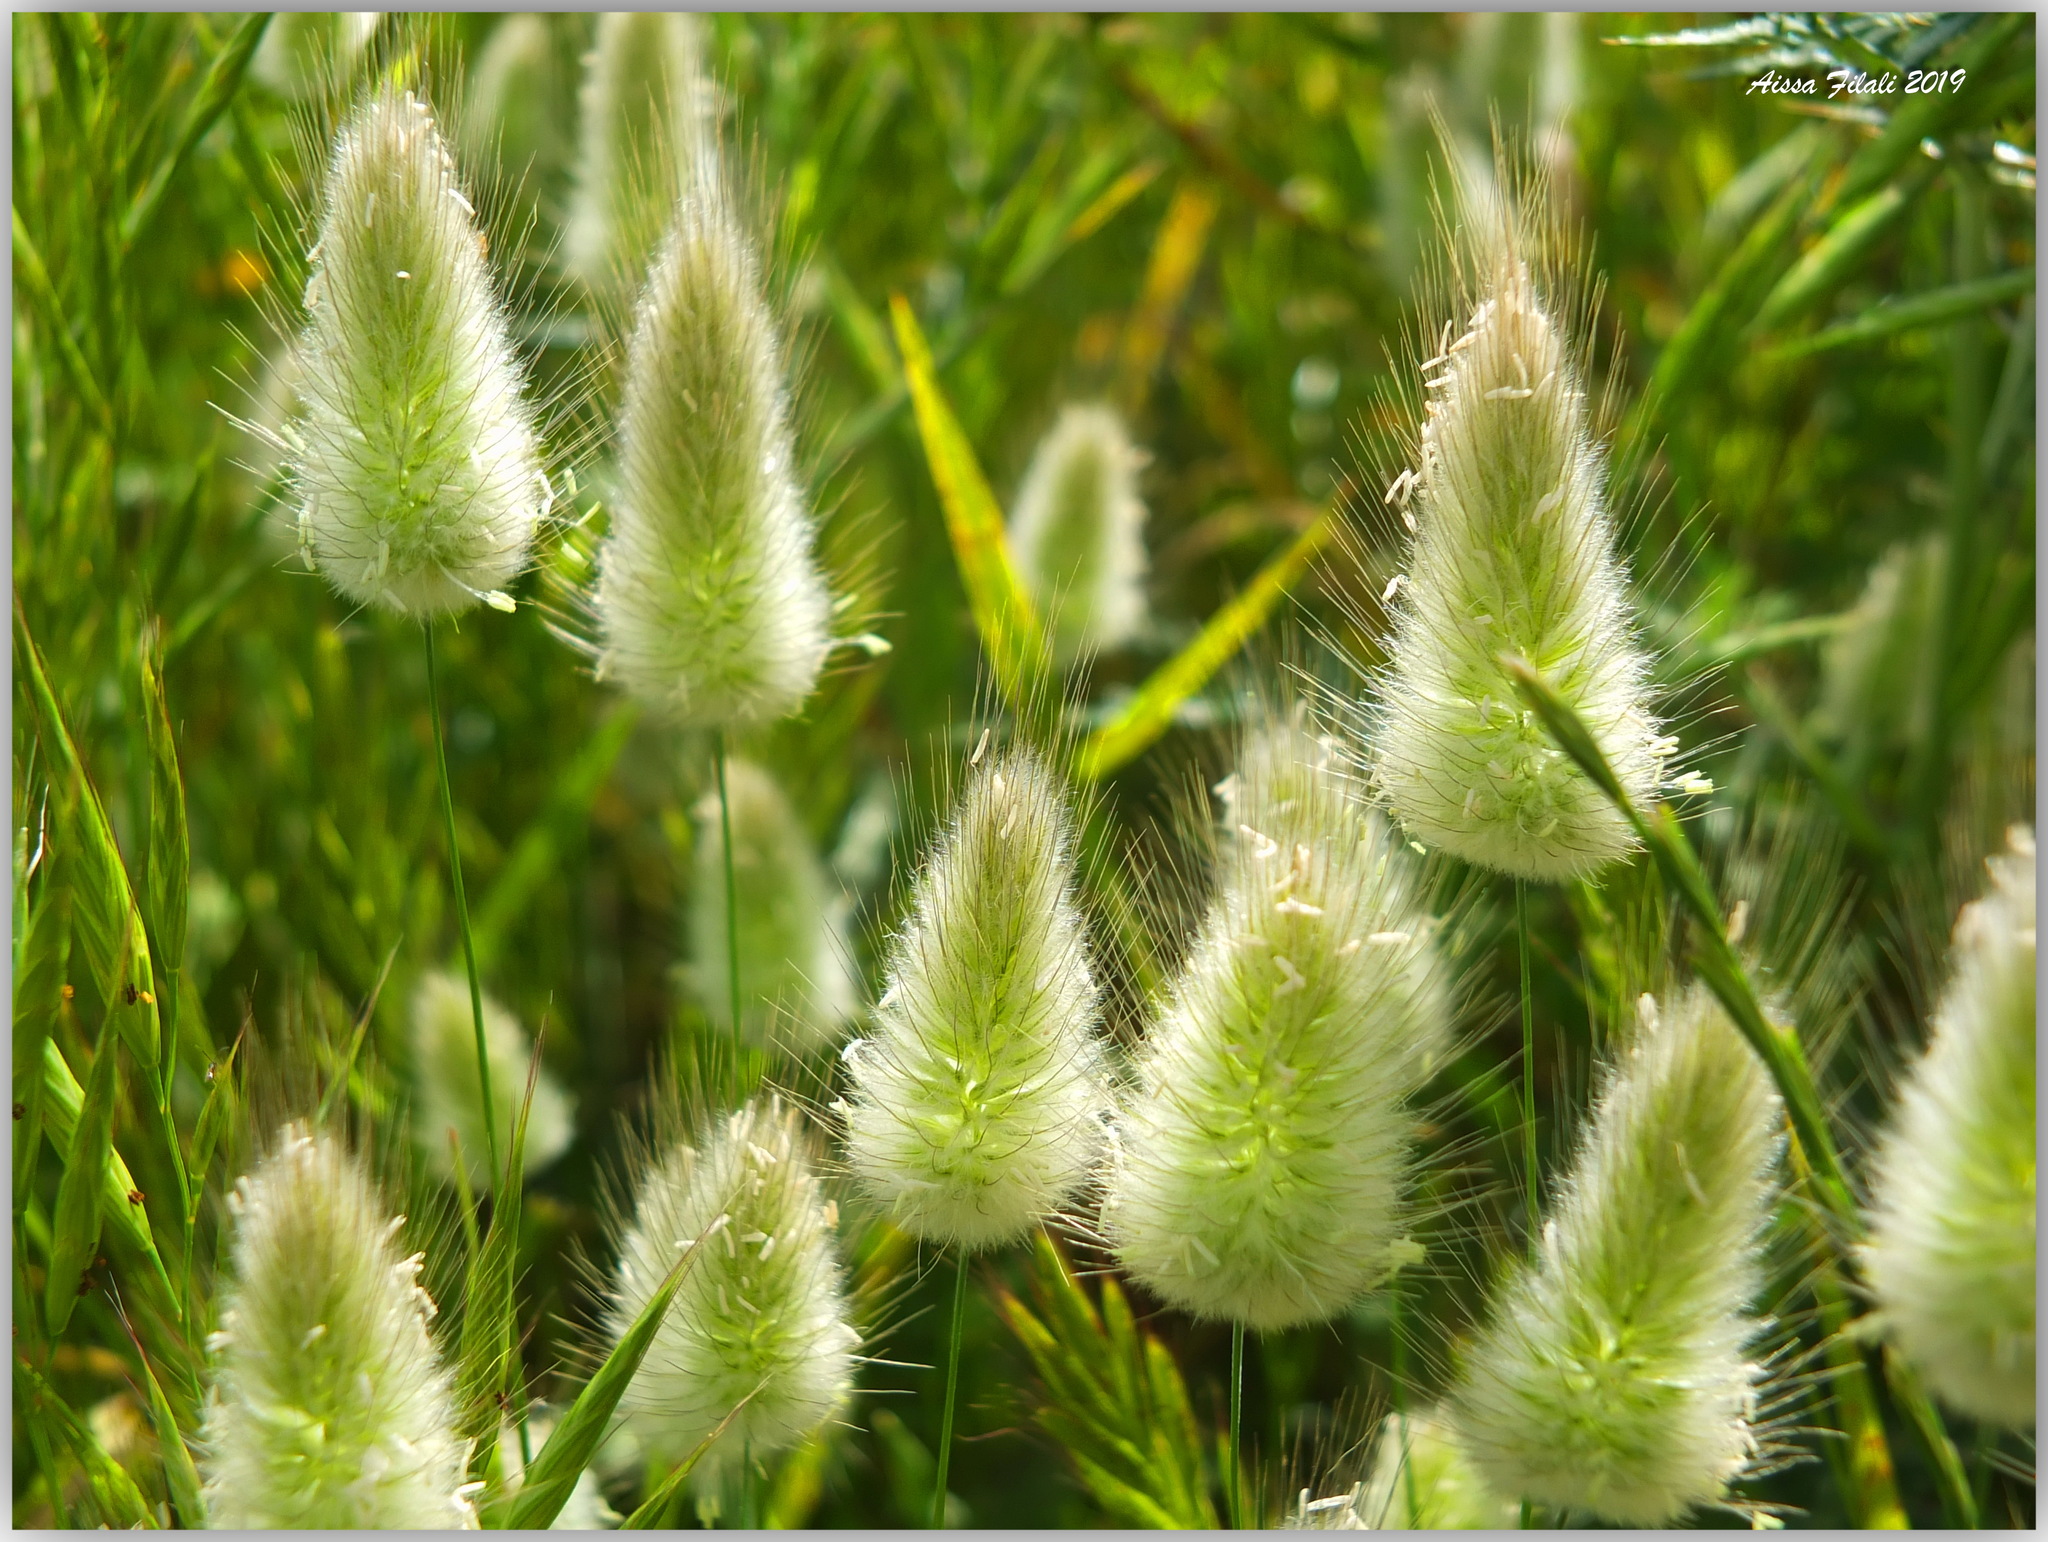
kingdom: Plantae
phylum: Tracheophyta
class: Liliopsida
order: Poales
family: Poaceae
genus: Lagurus
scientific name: Lagurus ovatus
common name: Hare's-tail
